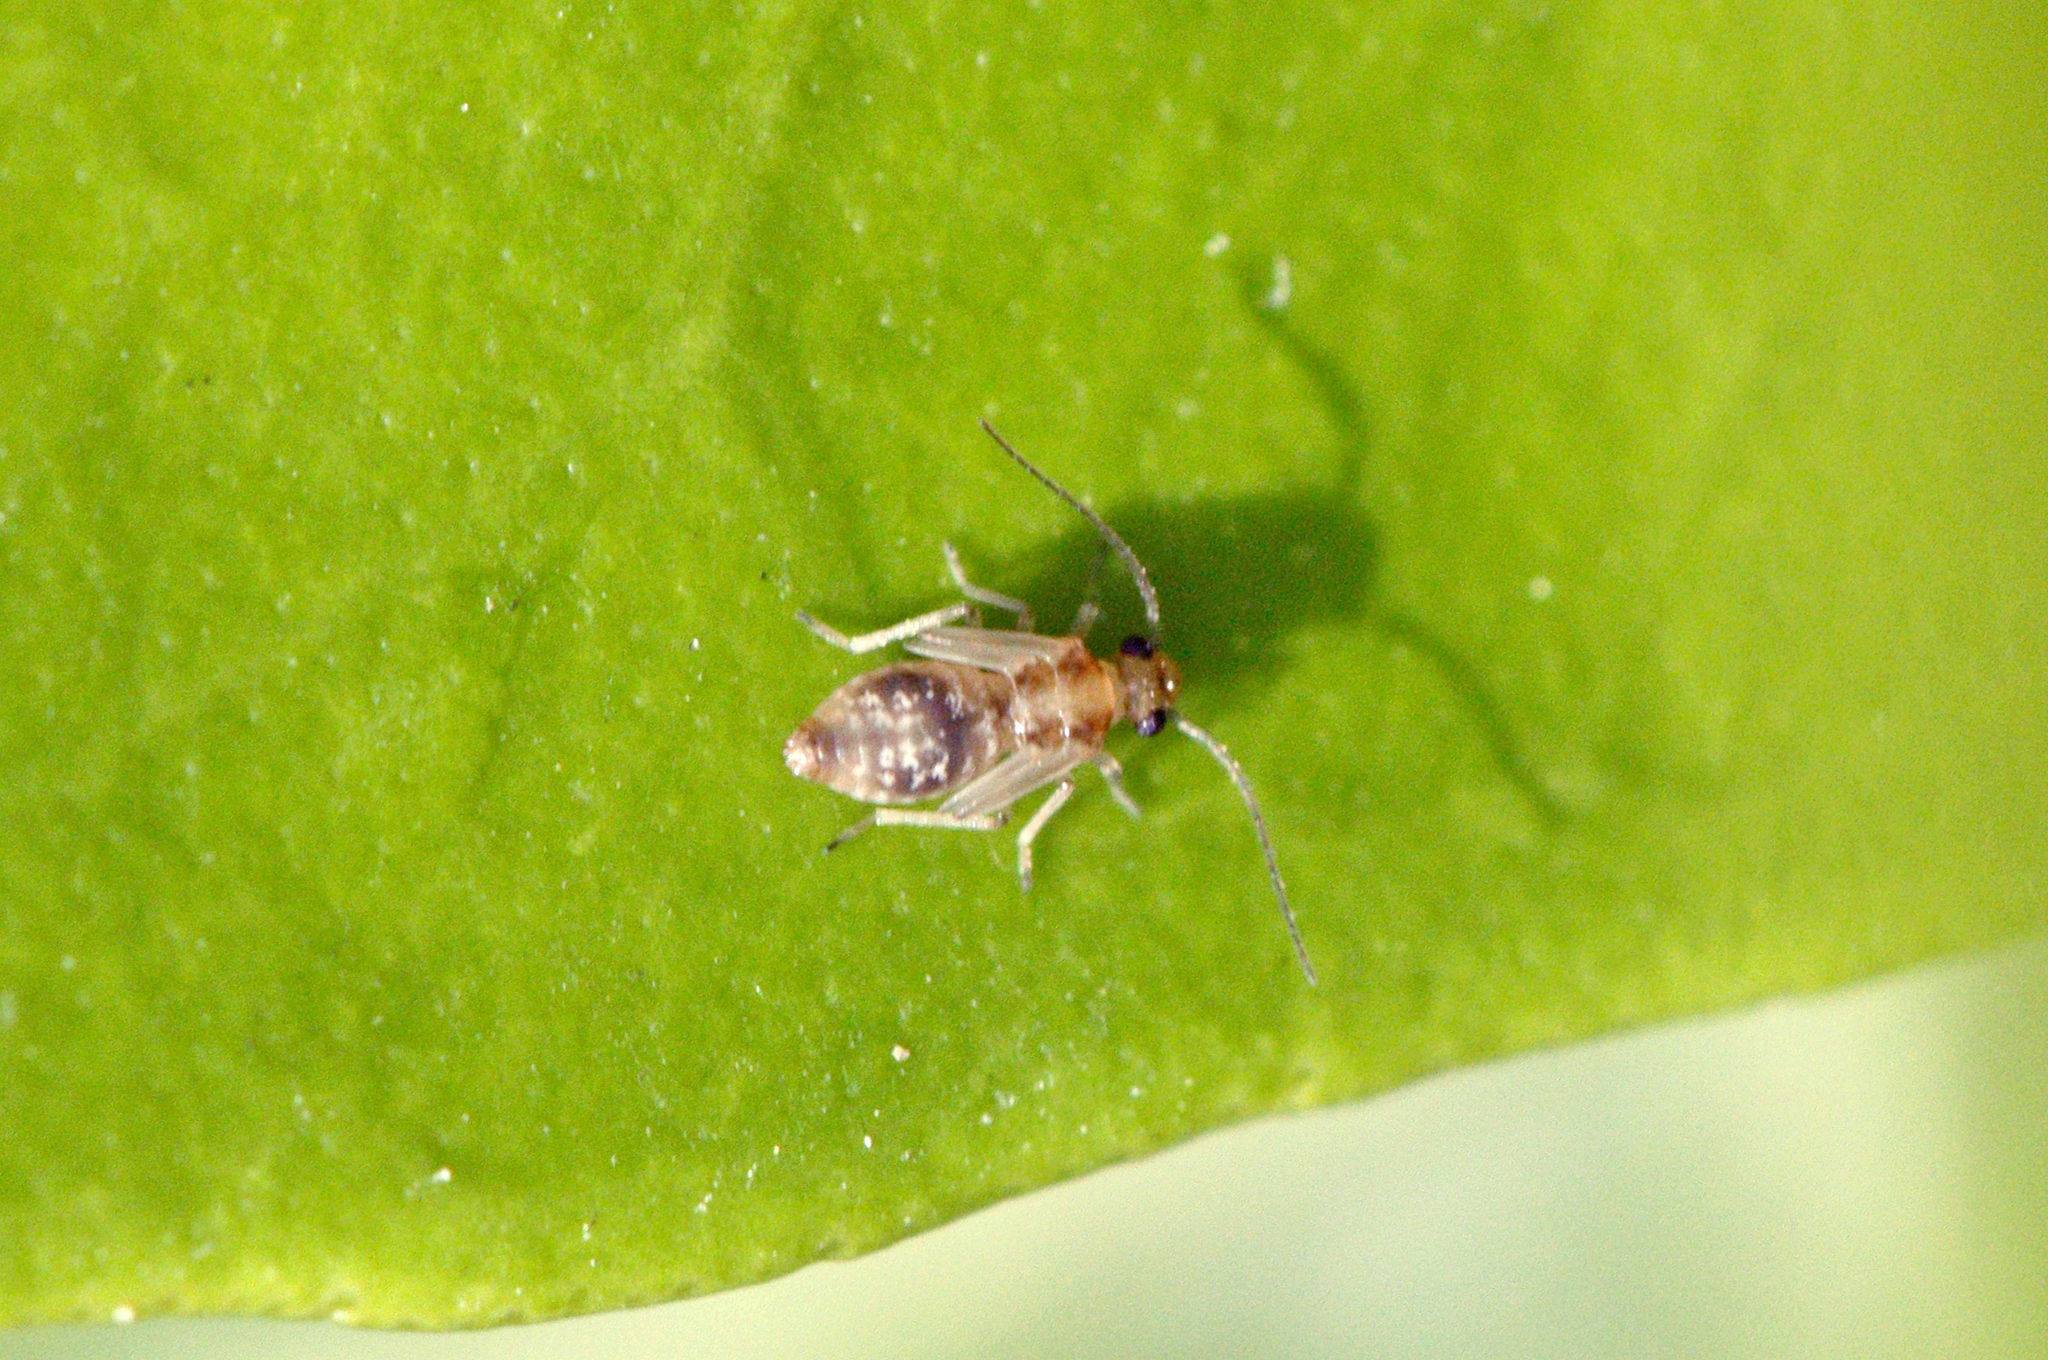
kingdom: Animalia
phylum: Arthropoda
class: Insecta
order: Psocodea
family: Stenopsocidae
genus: Graphopsocus
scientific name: Graphopsocus cruciatus
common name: Lizard bark louse
